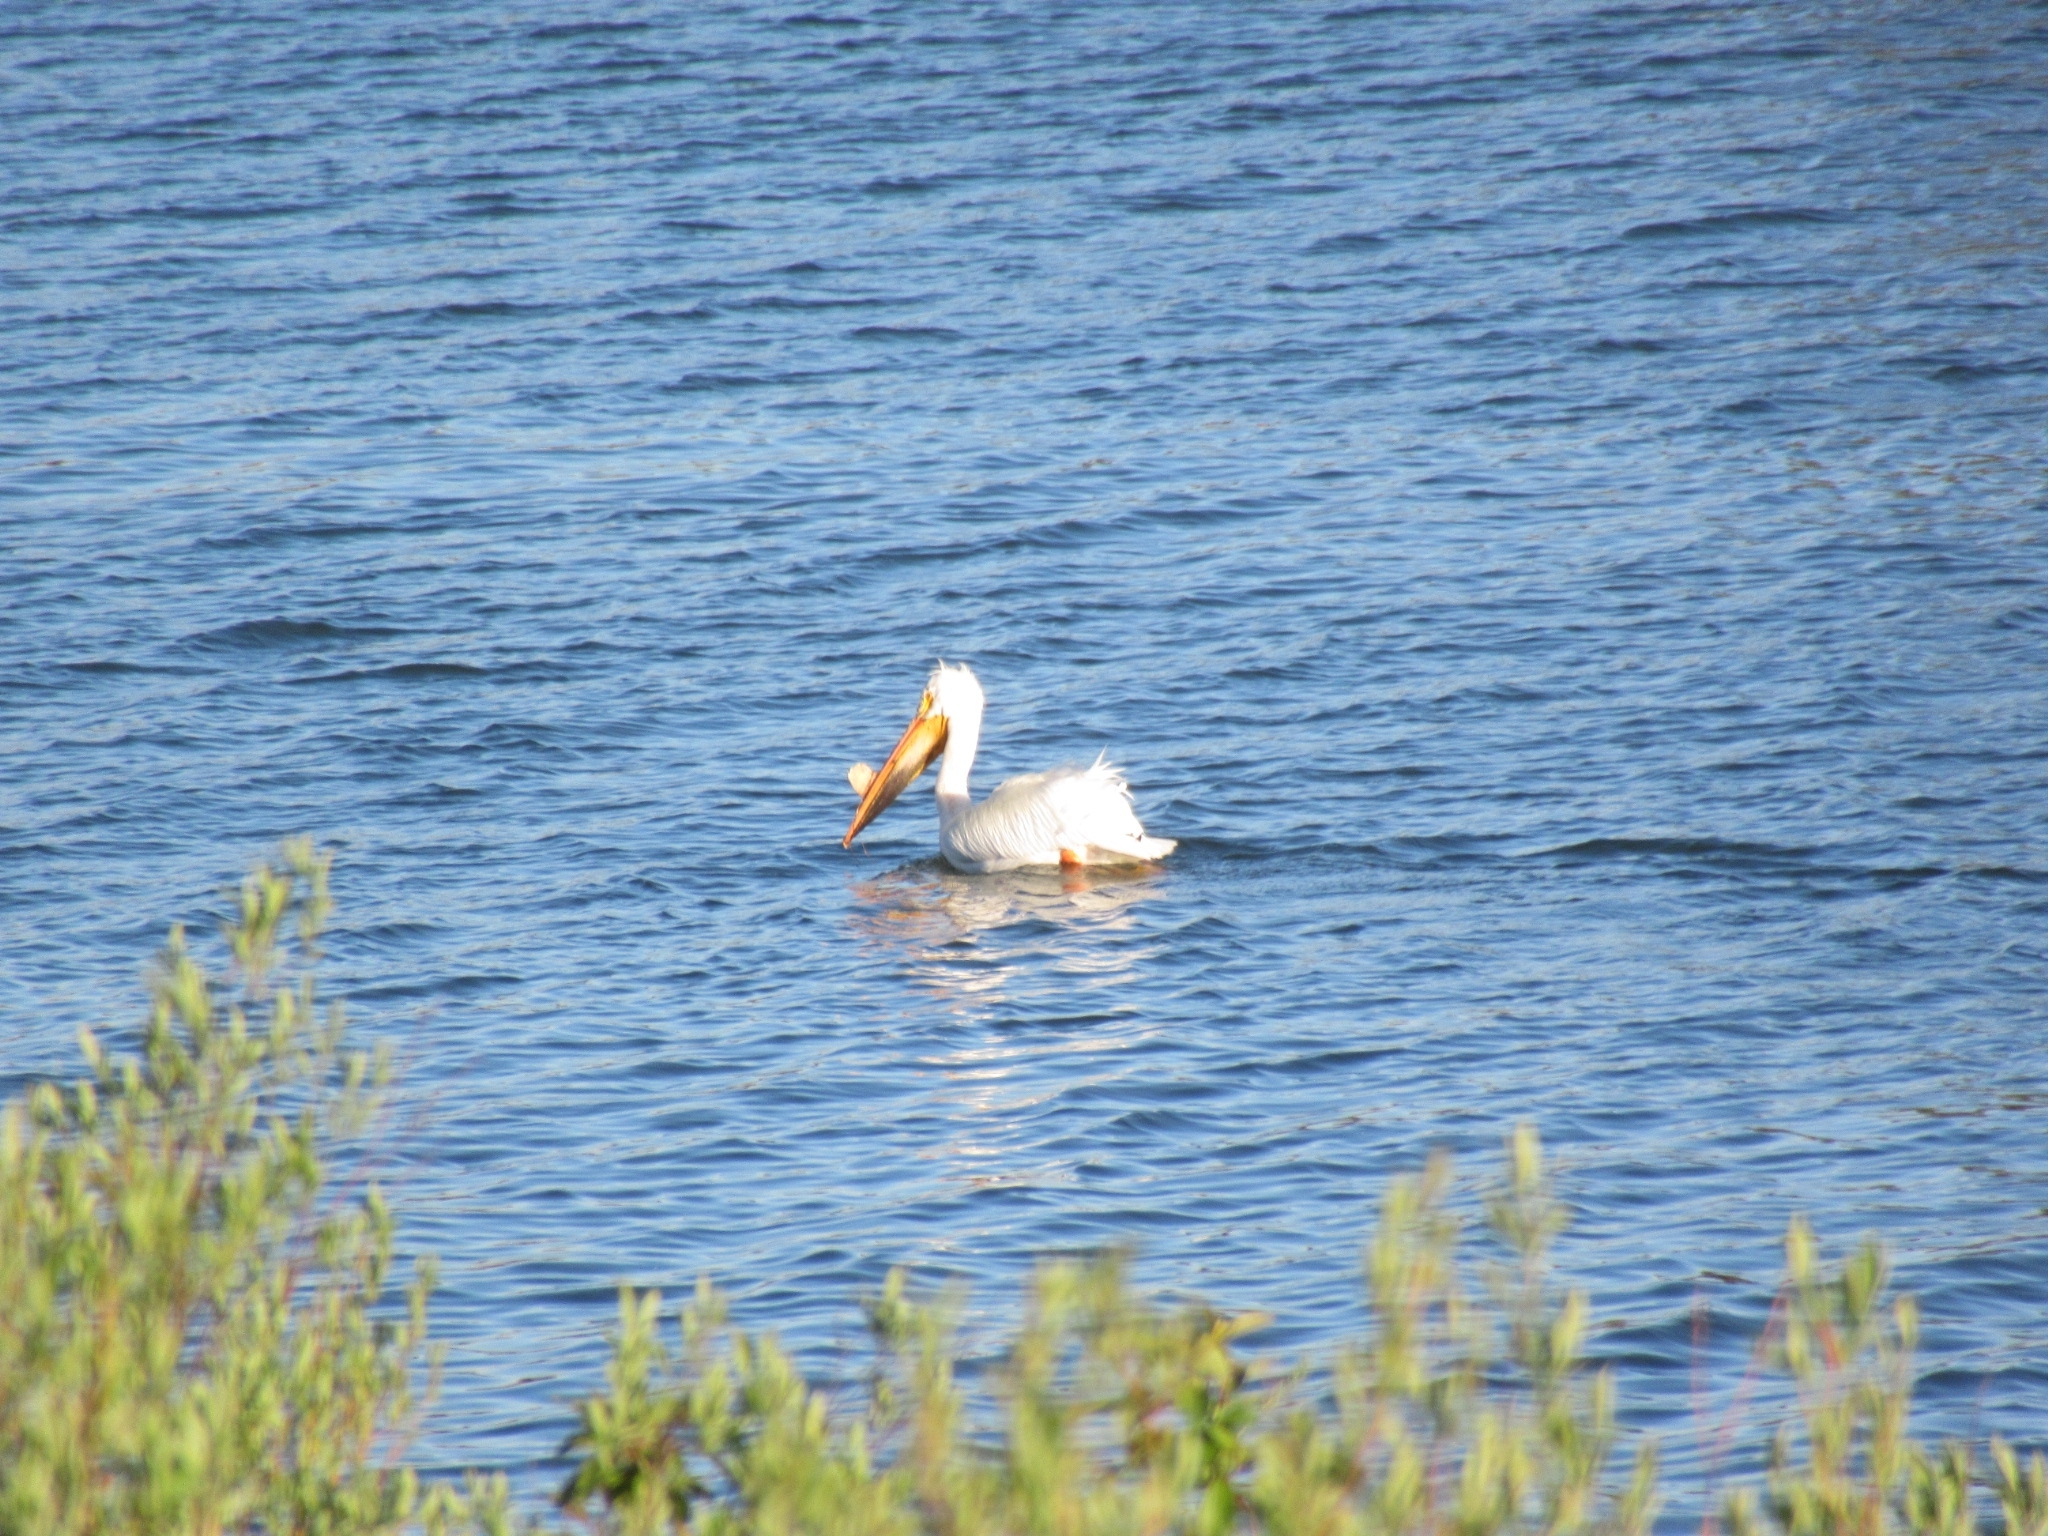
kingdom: Animalia
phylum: Chordata
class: Aves
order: Pelecaniformes
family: Pelecanidae
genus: Pelecanus
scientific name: Pelecanus erythrorhynchos
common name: American white pelican
